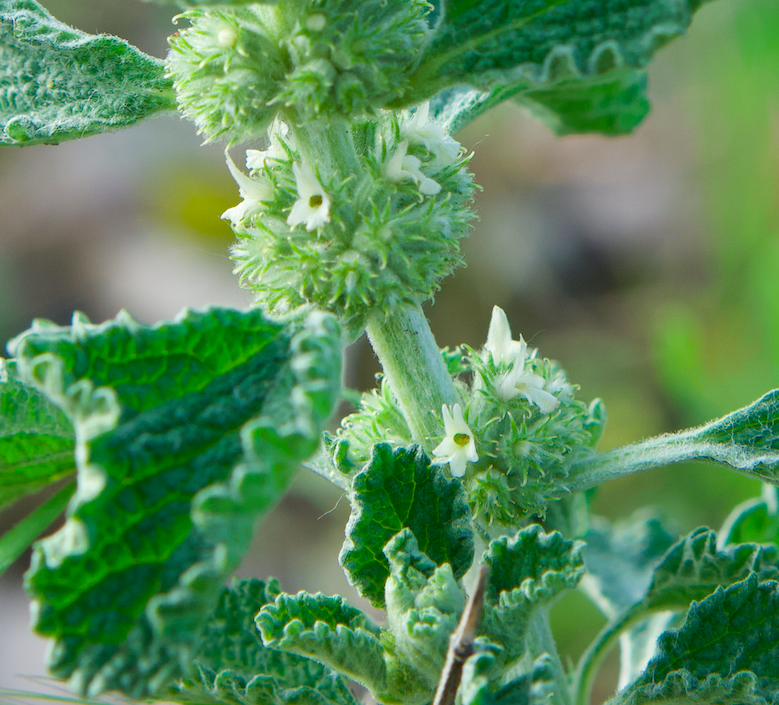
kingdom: Plantae
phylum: Tracheophyta
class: Magnoliopsida
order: Lamiales
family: Lamiaceae
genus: Marrubium
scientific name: Marrubium vulgare
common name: Horehound
